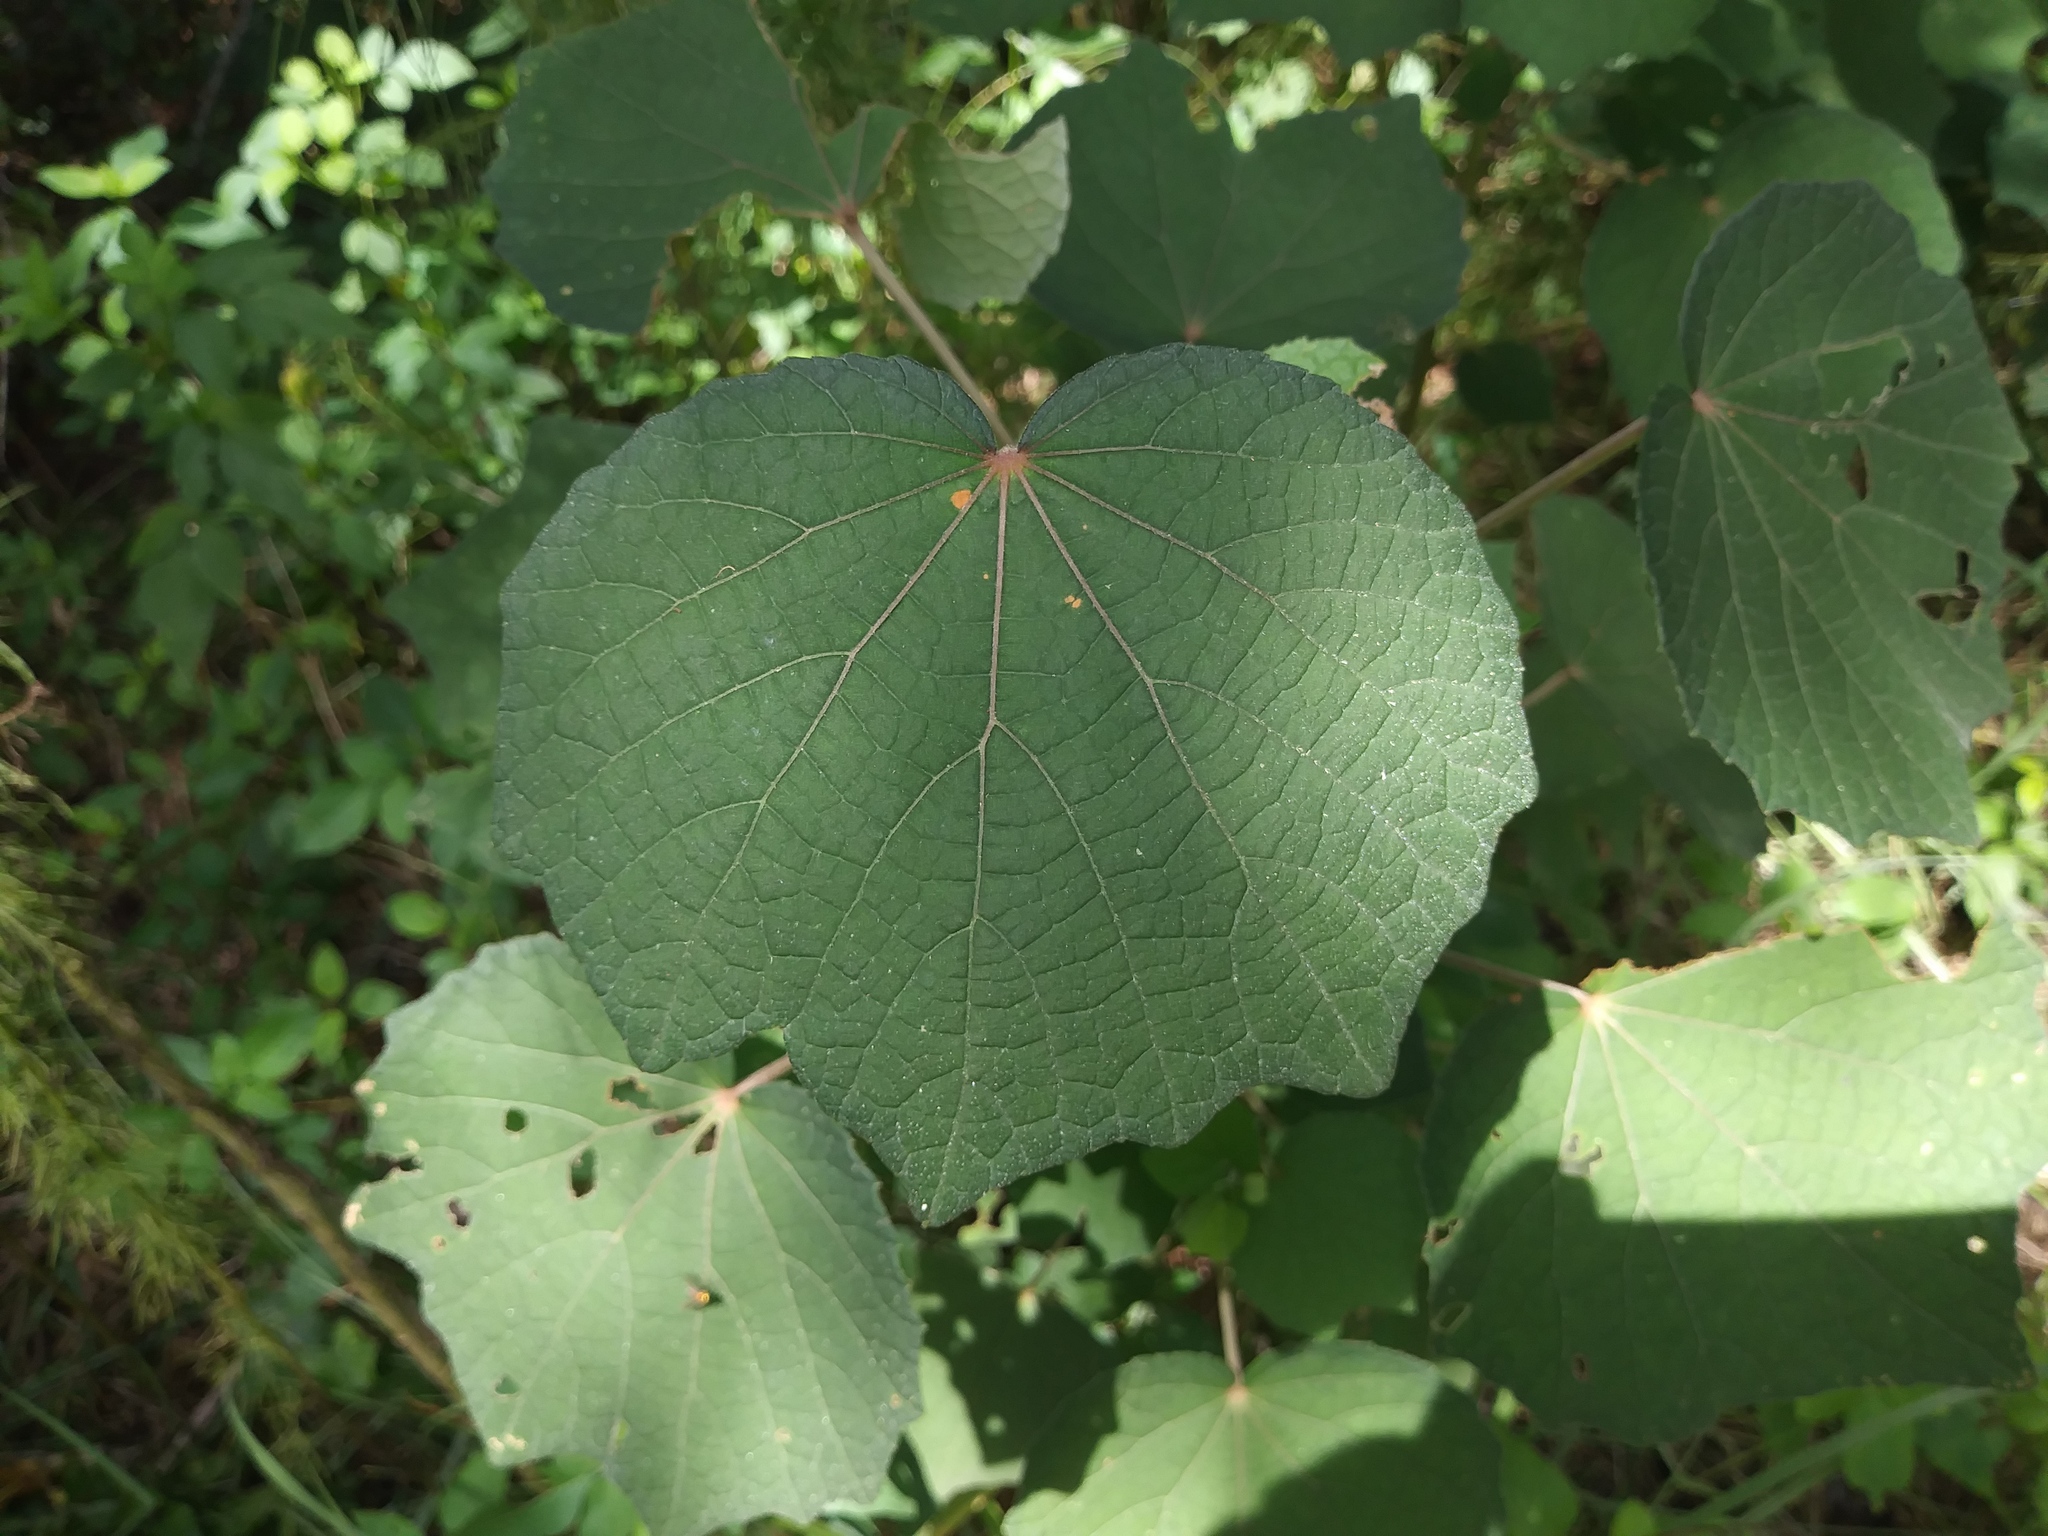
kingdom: Plantae
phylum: Tracheophyta
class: Magnoliopsida
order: Malvales
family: Malvaceae
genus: Urena
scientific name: Urena lobata
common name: Caesarweed
